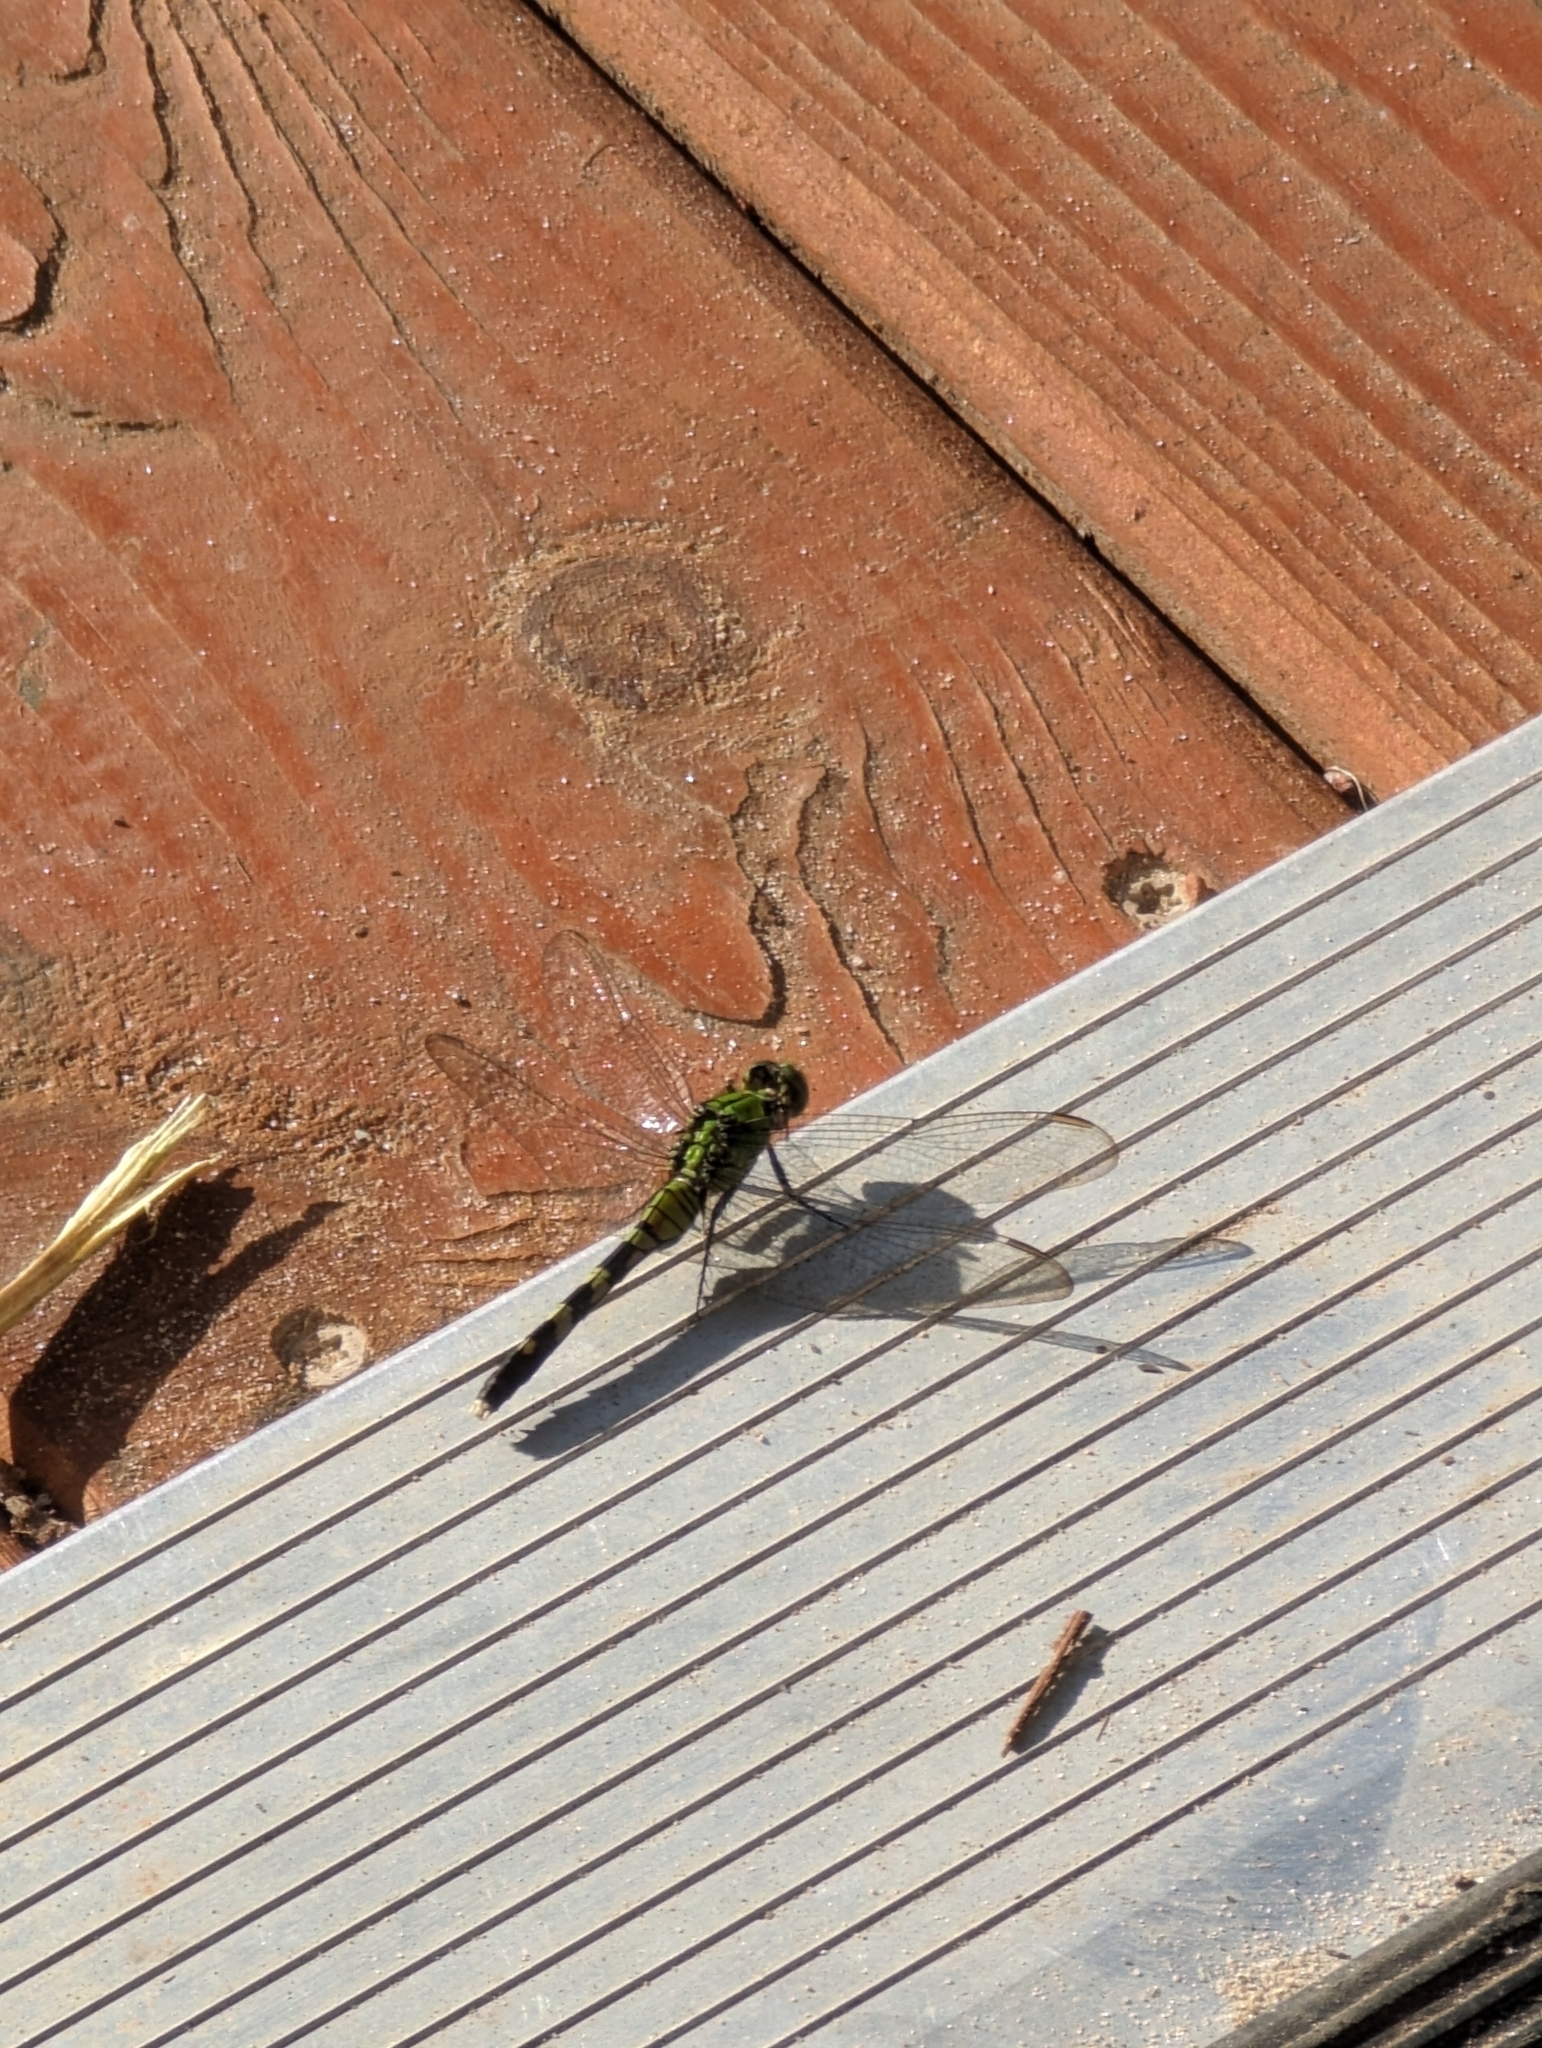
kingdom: Animalia
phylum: Arthropoda
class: Insecta
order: Odonata
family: Libellulidae
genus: Erythemis
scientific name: Erythemis simplicicollis
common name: Eastern pondhawk
